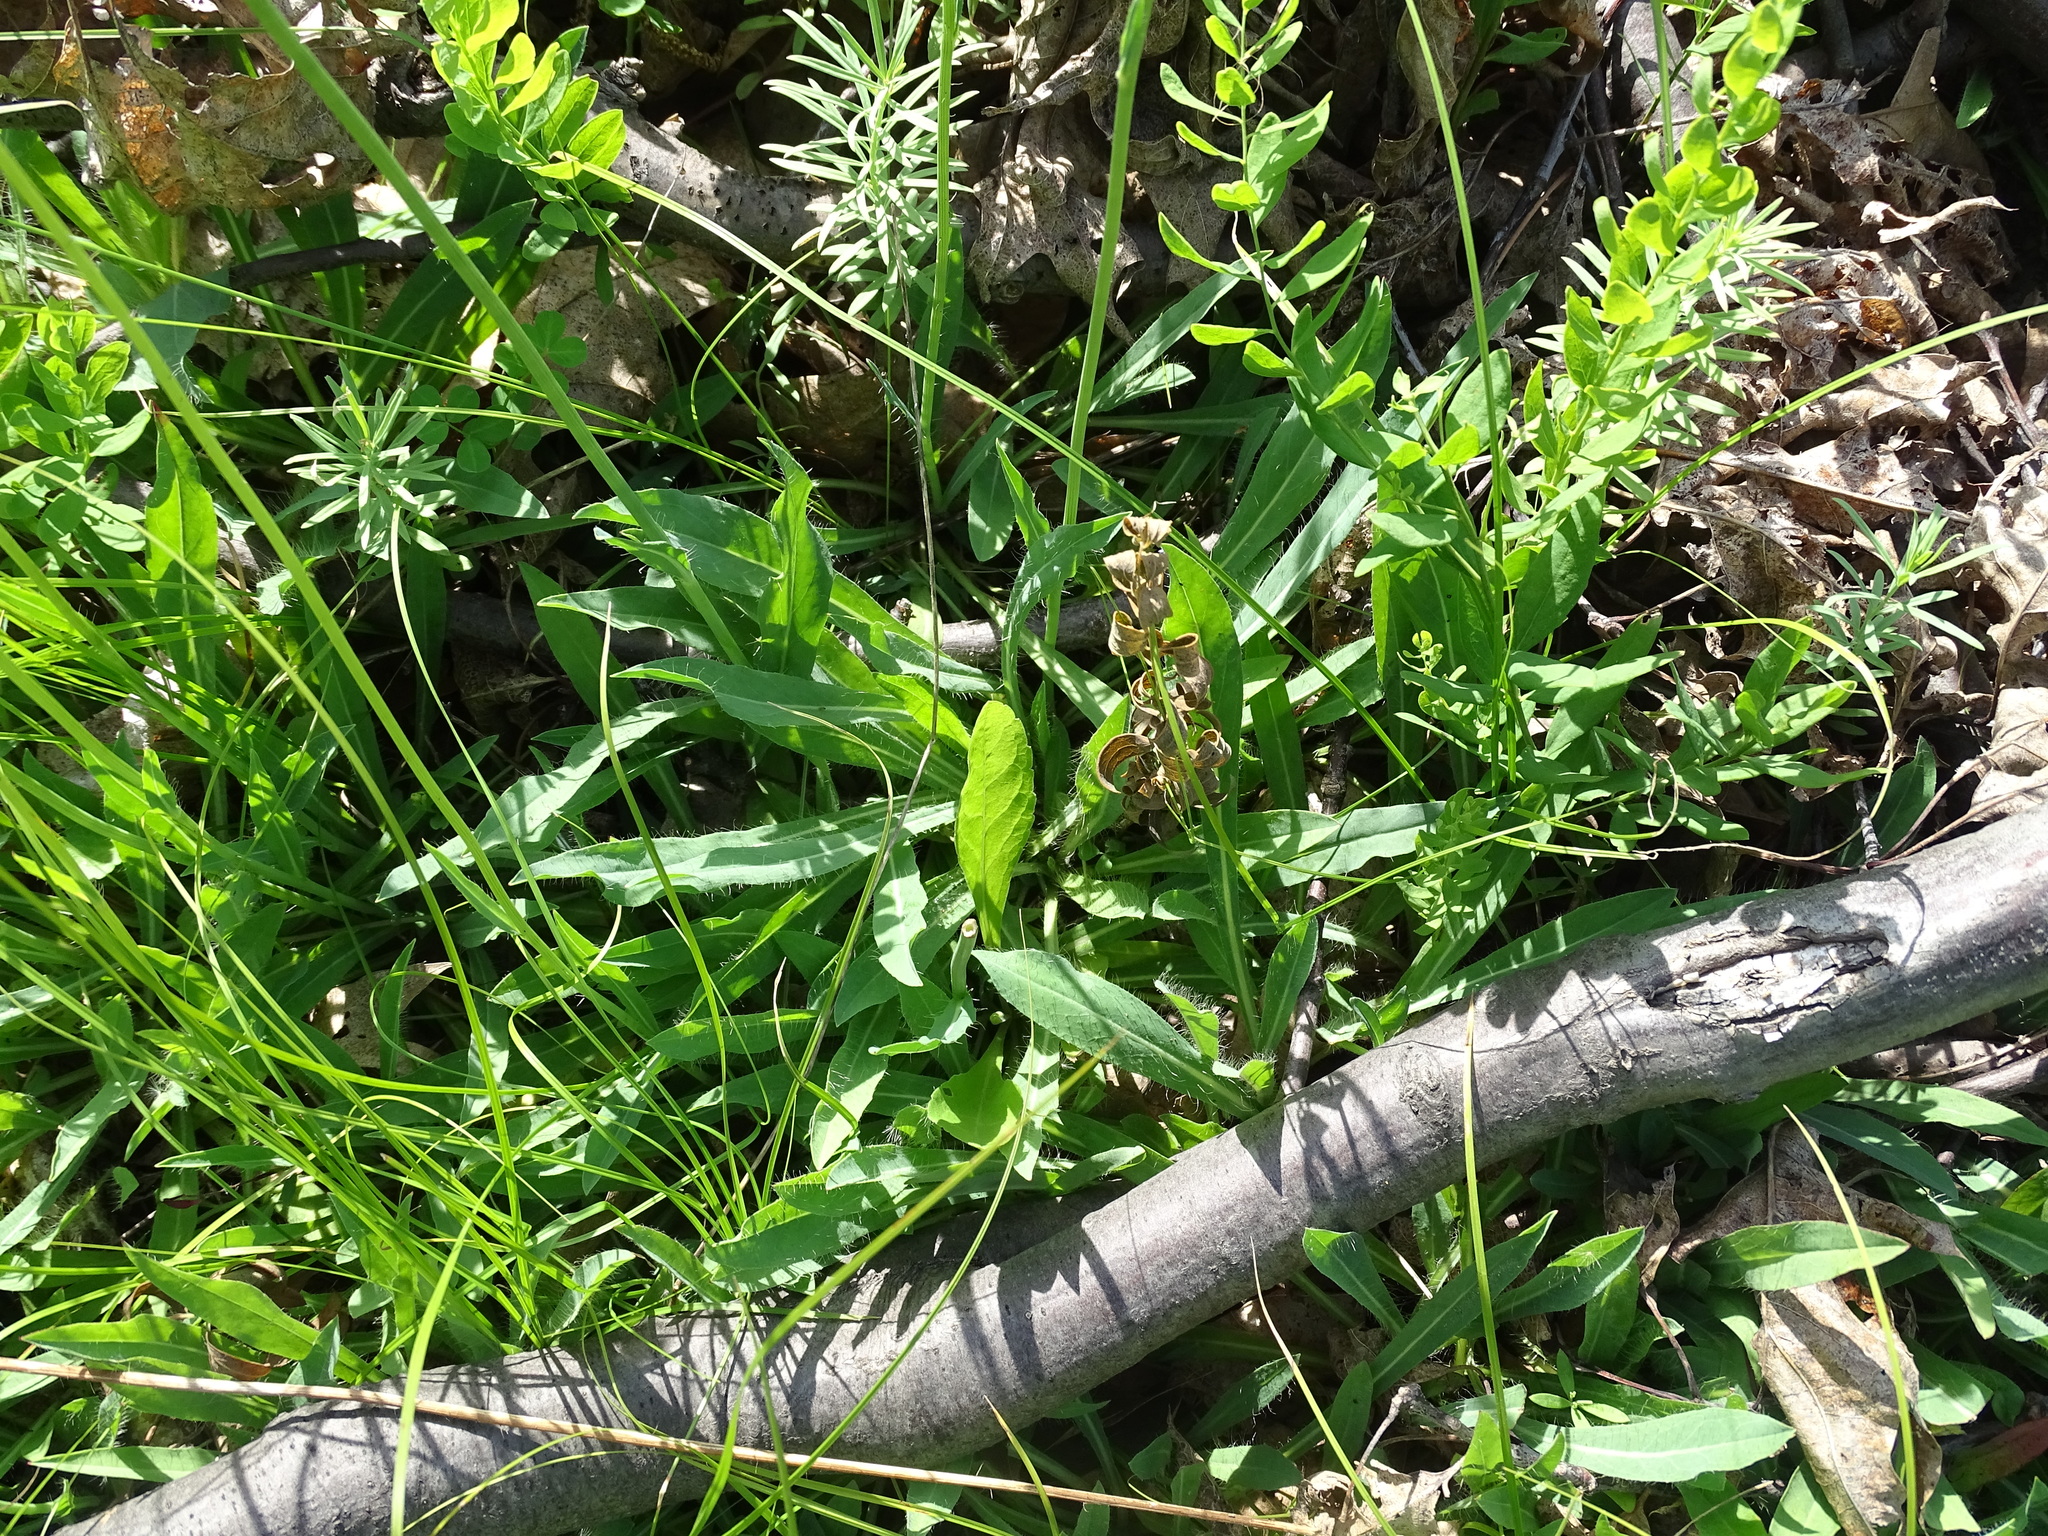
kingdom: Plantae
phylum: Tracheophyta
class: Magnoliopsida
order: Asterales
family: Asteraceae
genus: Pilosella
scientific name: Pilosella piloselloides
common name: Glaucous king-devil
